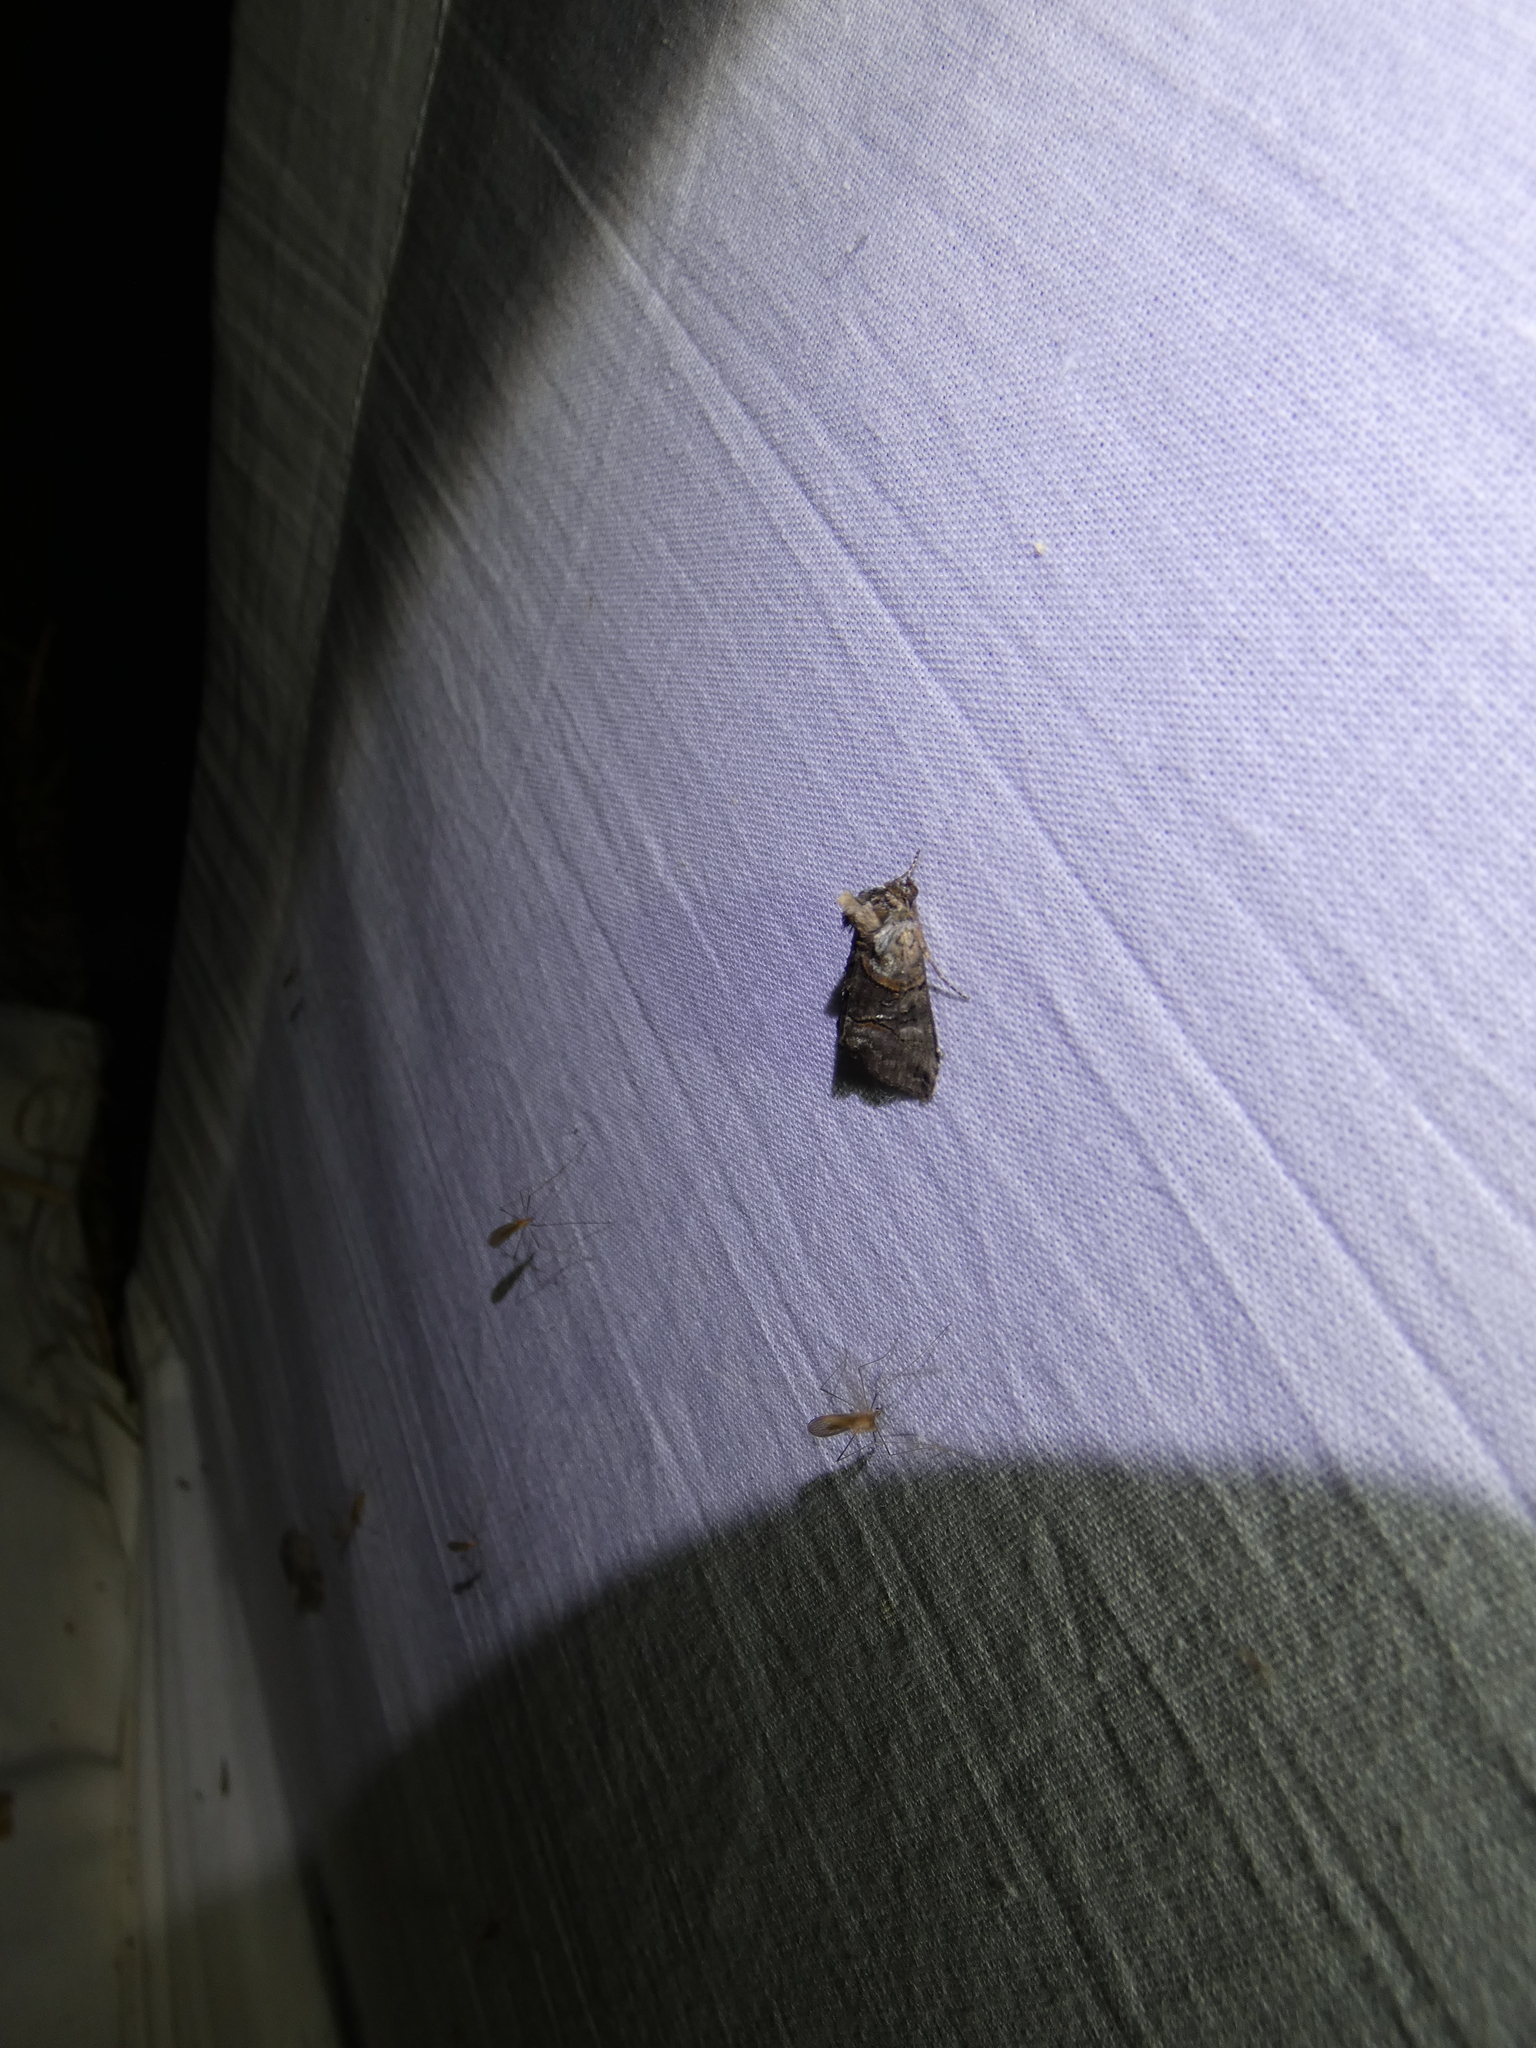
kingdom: Animalia
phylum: Arthropoda
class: Insecta
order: Lepidoptera
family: Noctuidae
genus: Abrostola
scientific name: Abrostola tripartita
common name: Spectacle
